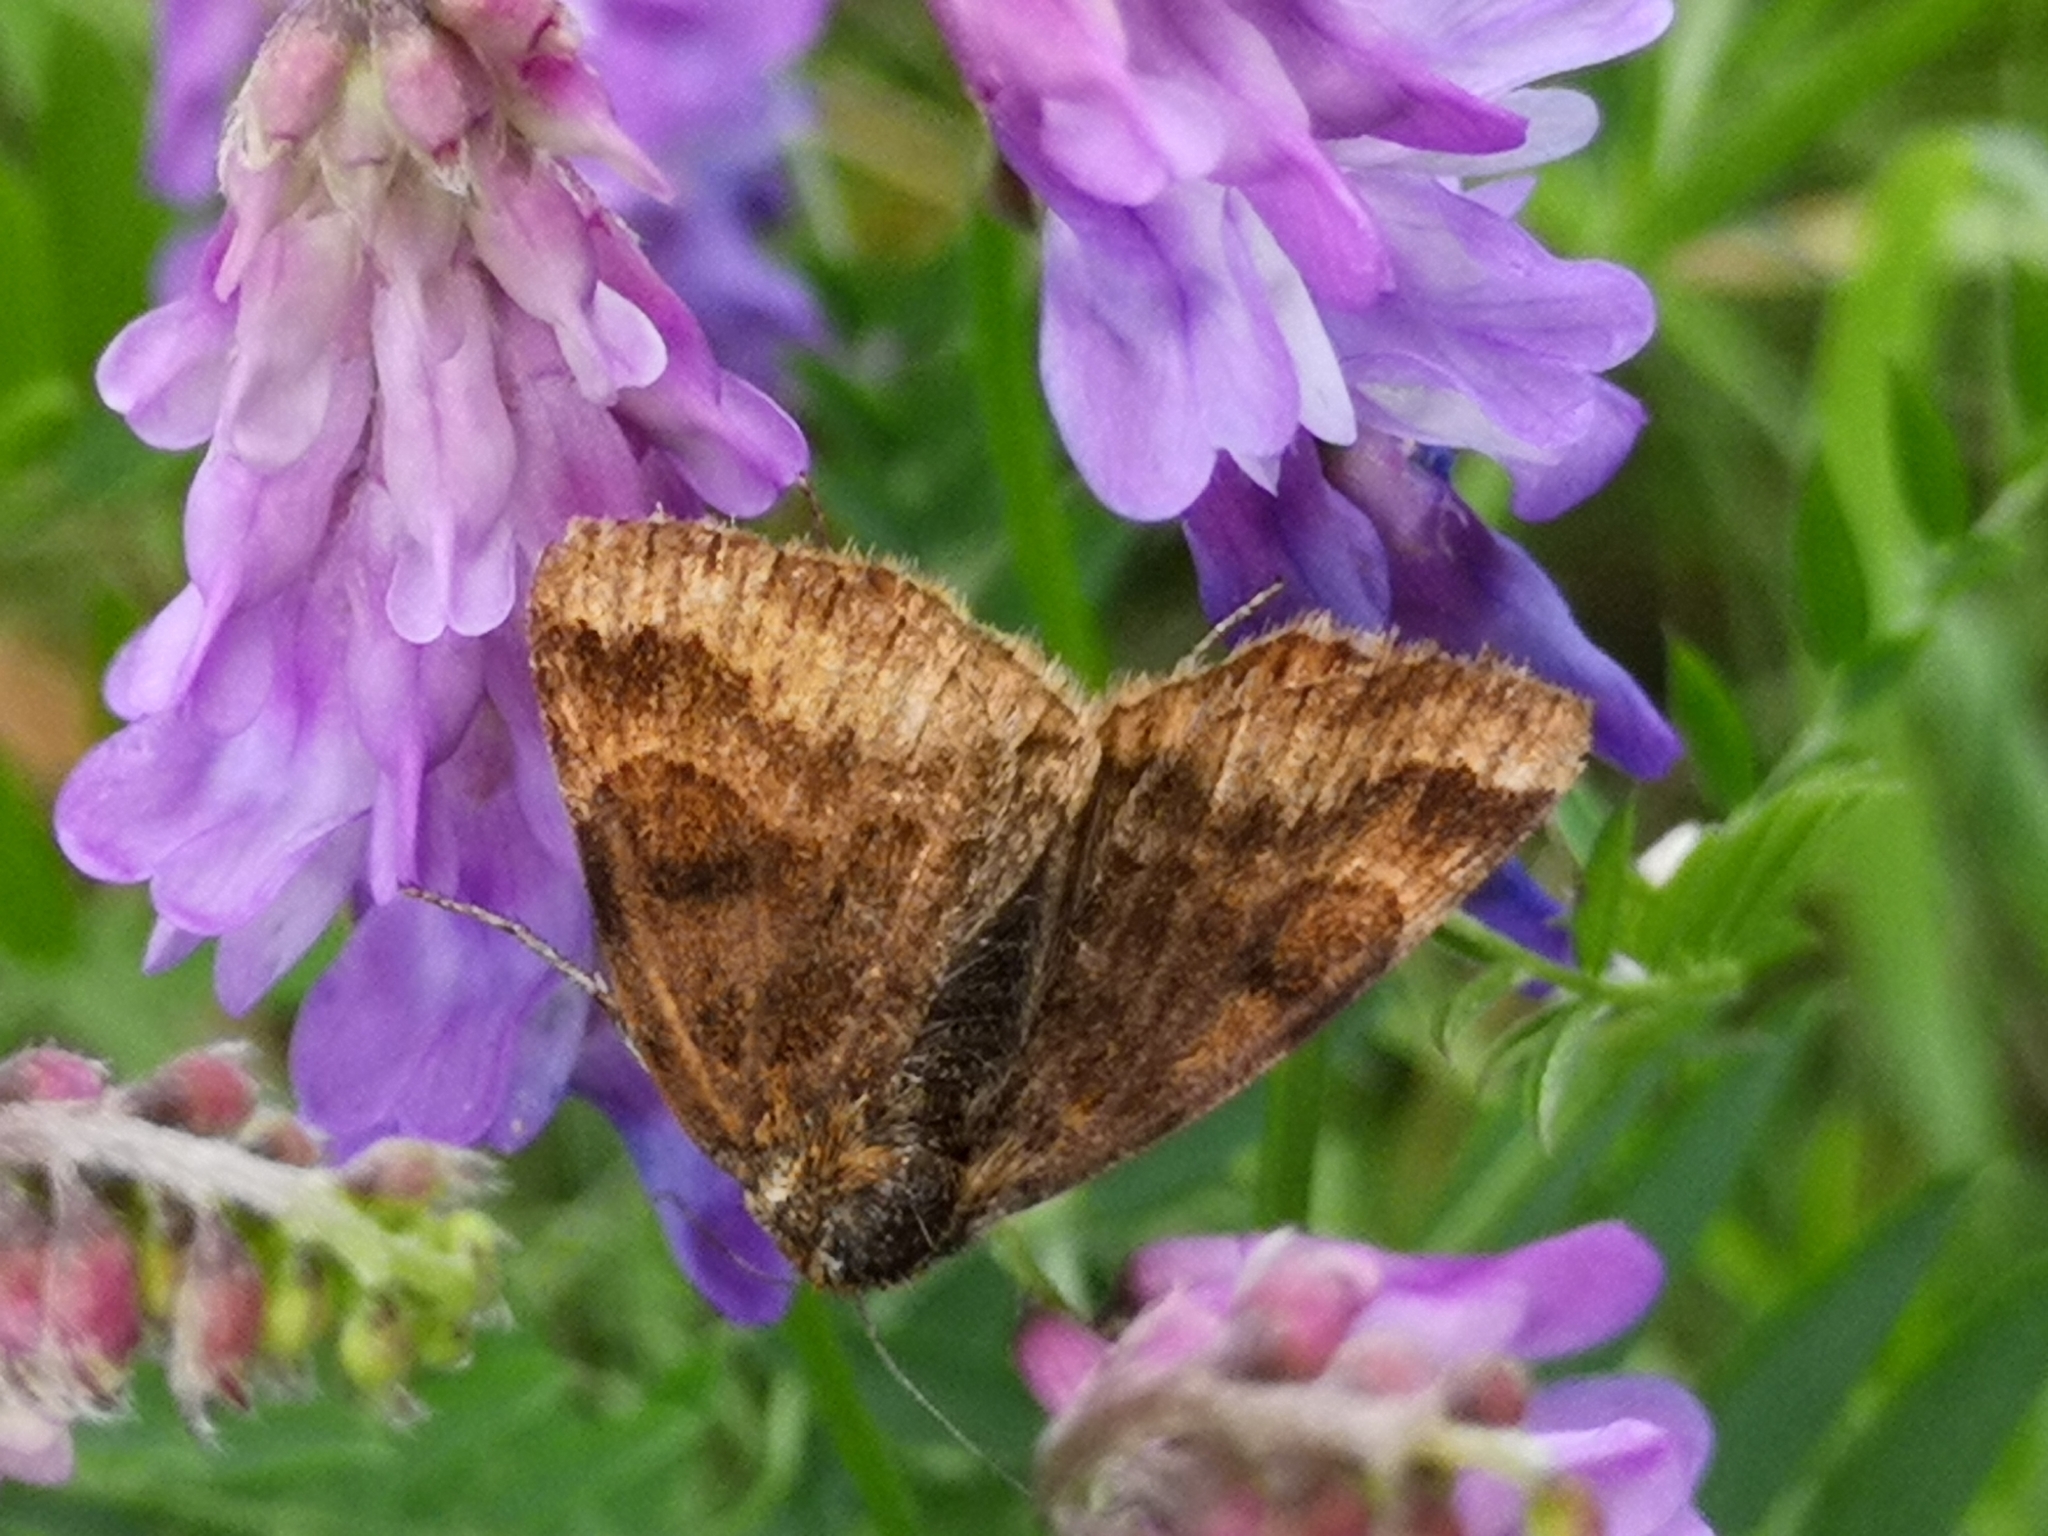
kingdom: Animalia
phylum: Arthropoda
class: Insecta
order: Lepidoptera
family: Erebidae
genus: Euclidia
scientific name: Euclidia glyphica
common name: Burnet companion
